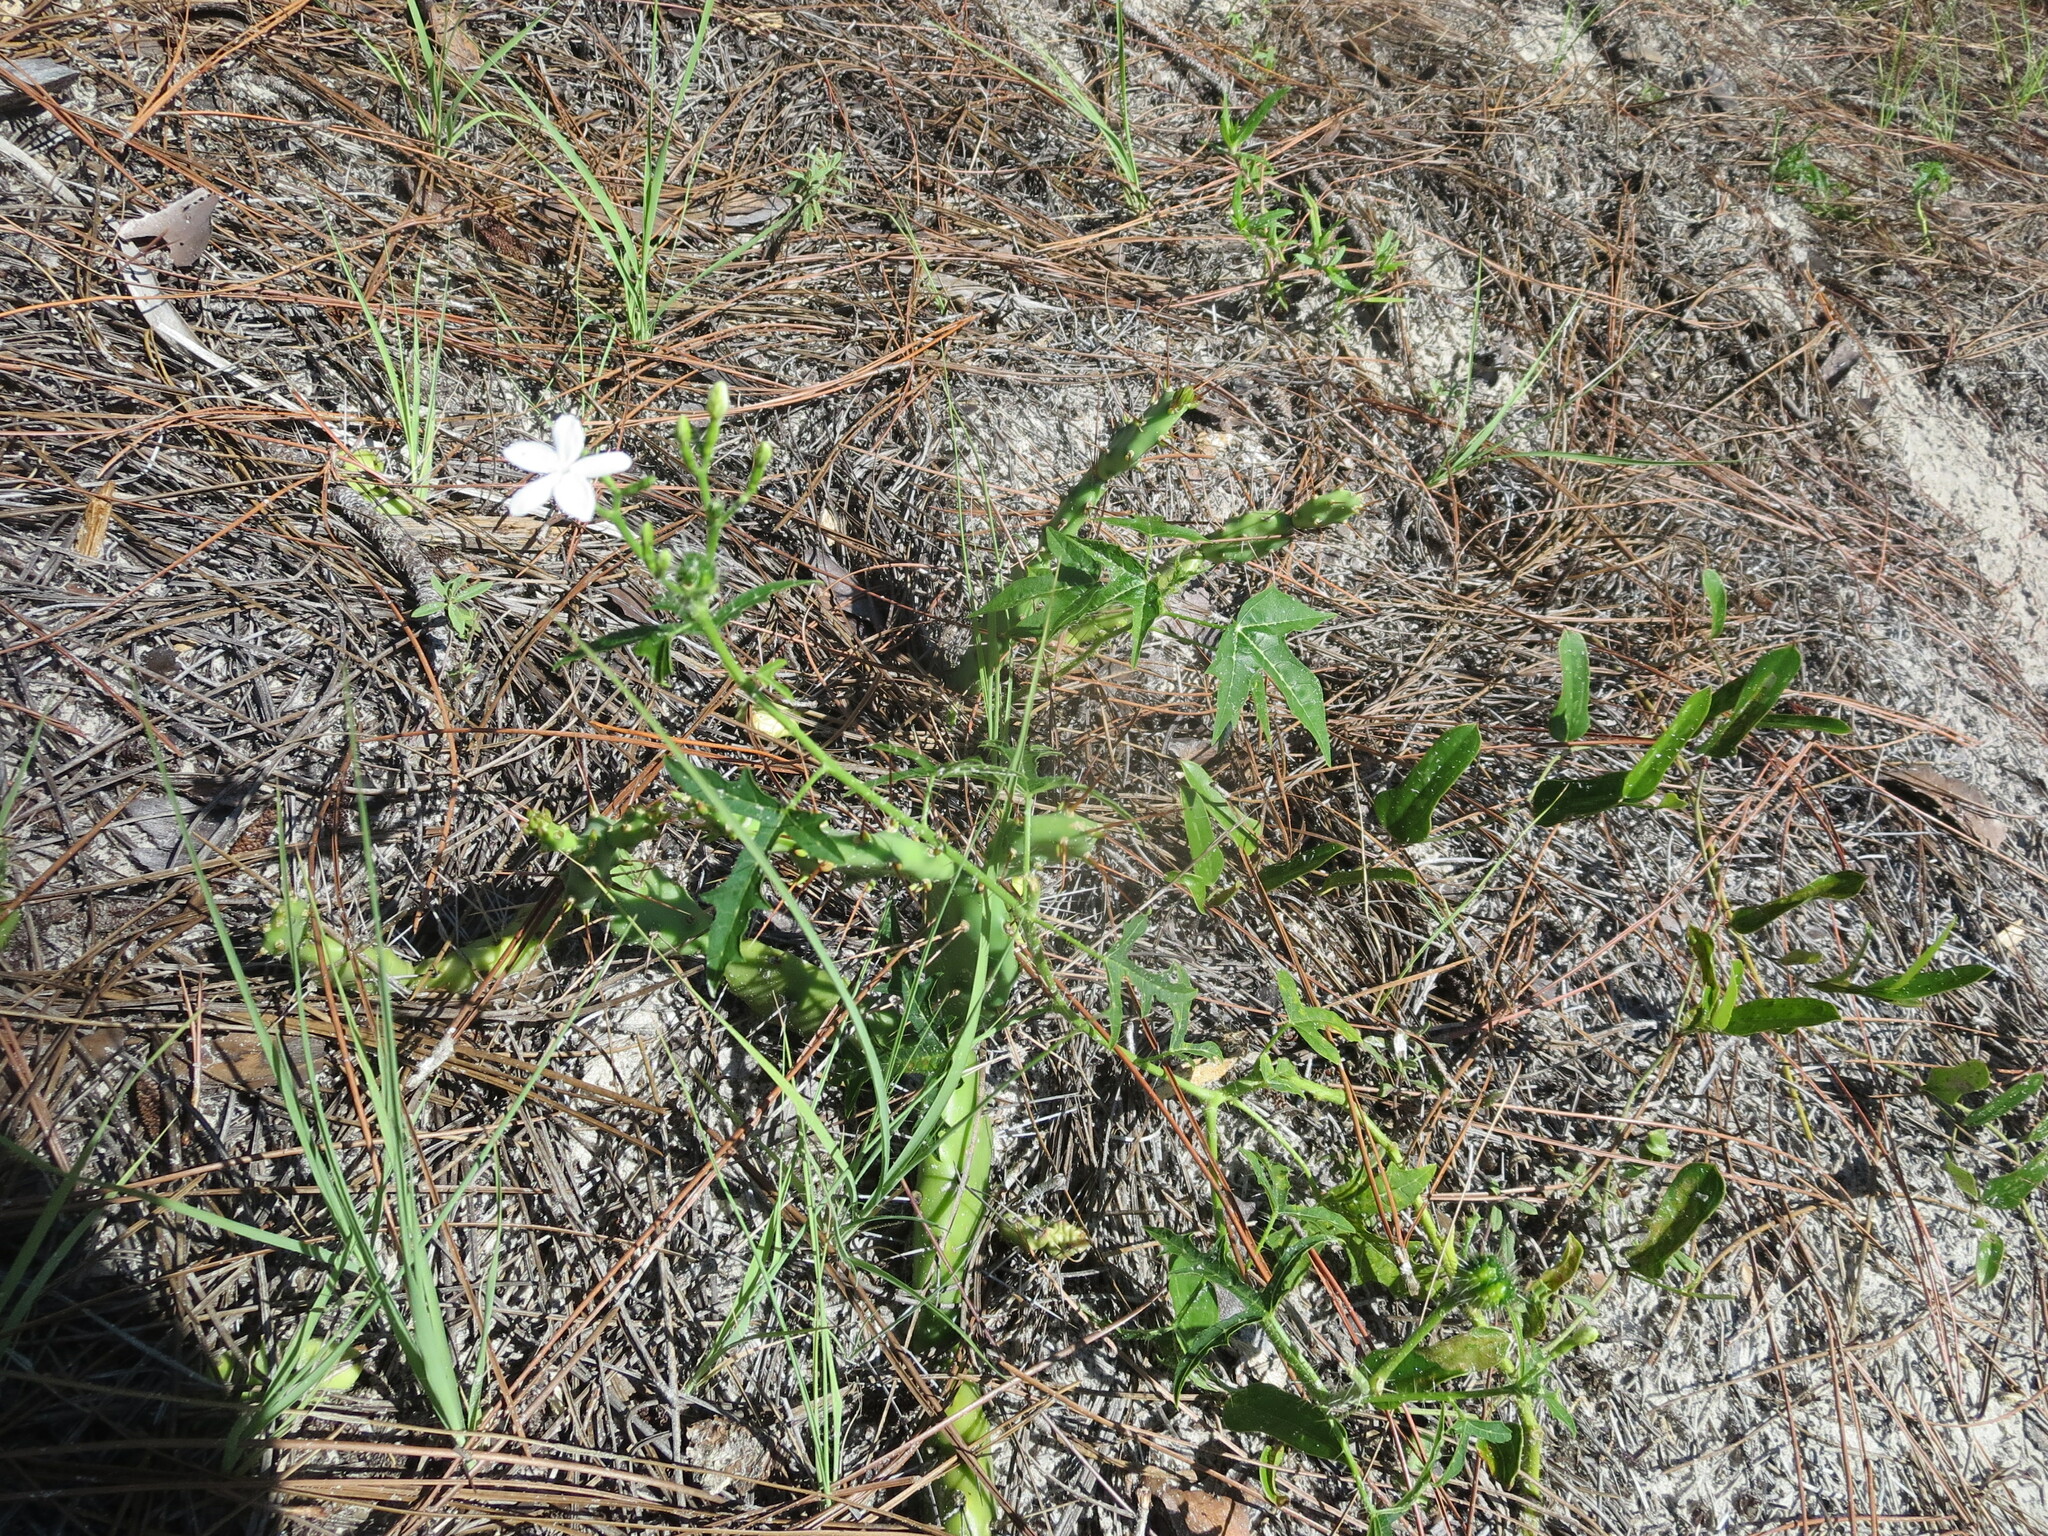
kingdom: Plantae
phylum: Tracheophyta
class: Magnoliopsida
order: Malpighiales
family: Euphorbiaceae
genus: Cnidoscolus
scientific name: Cnidoscolus stimulosus
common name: Bull-nettle
